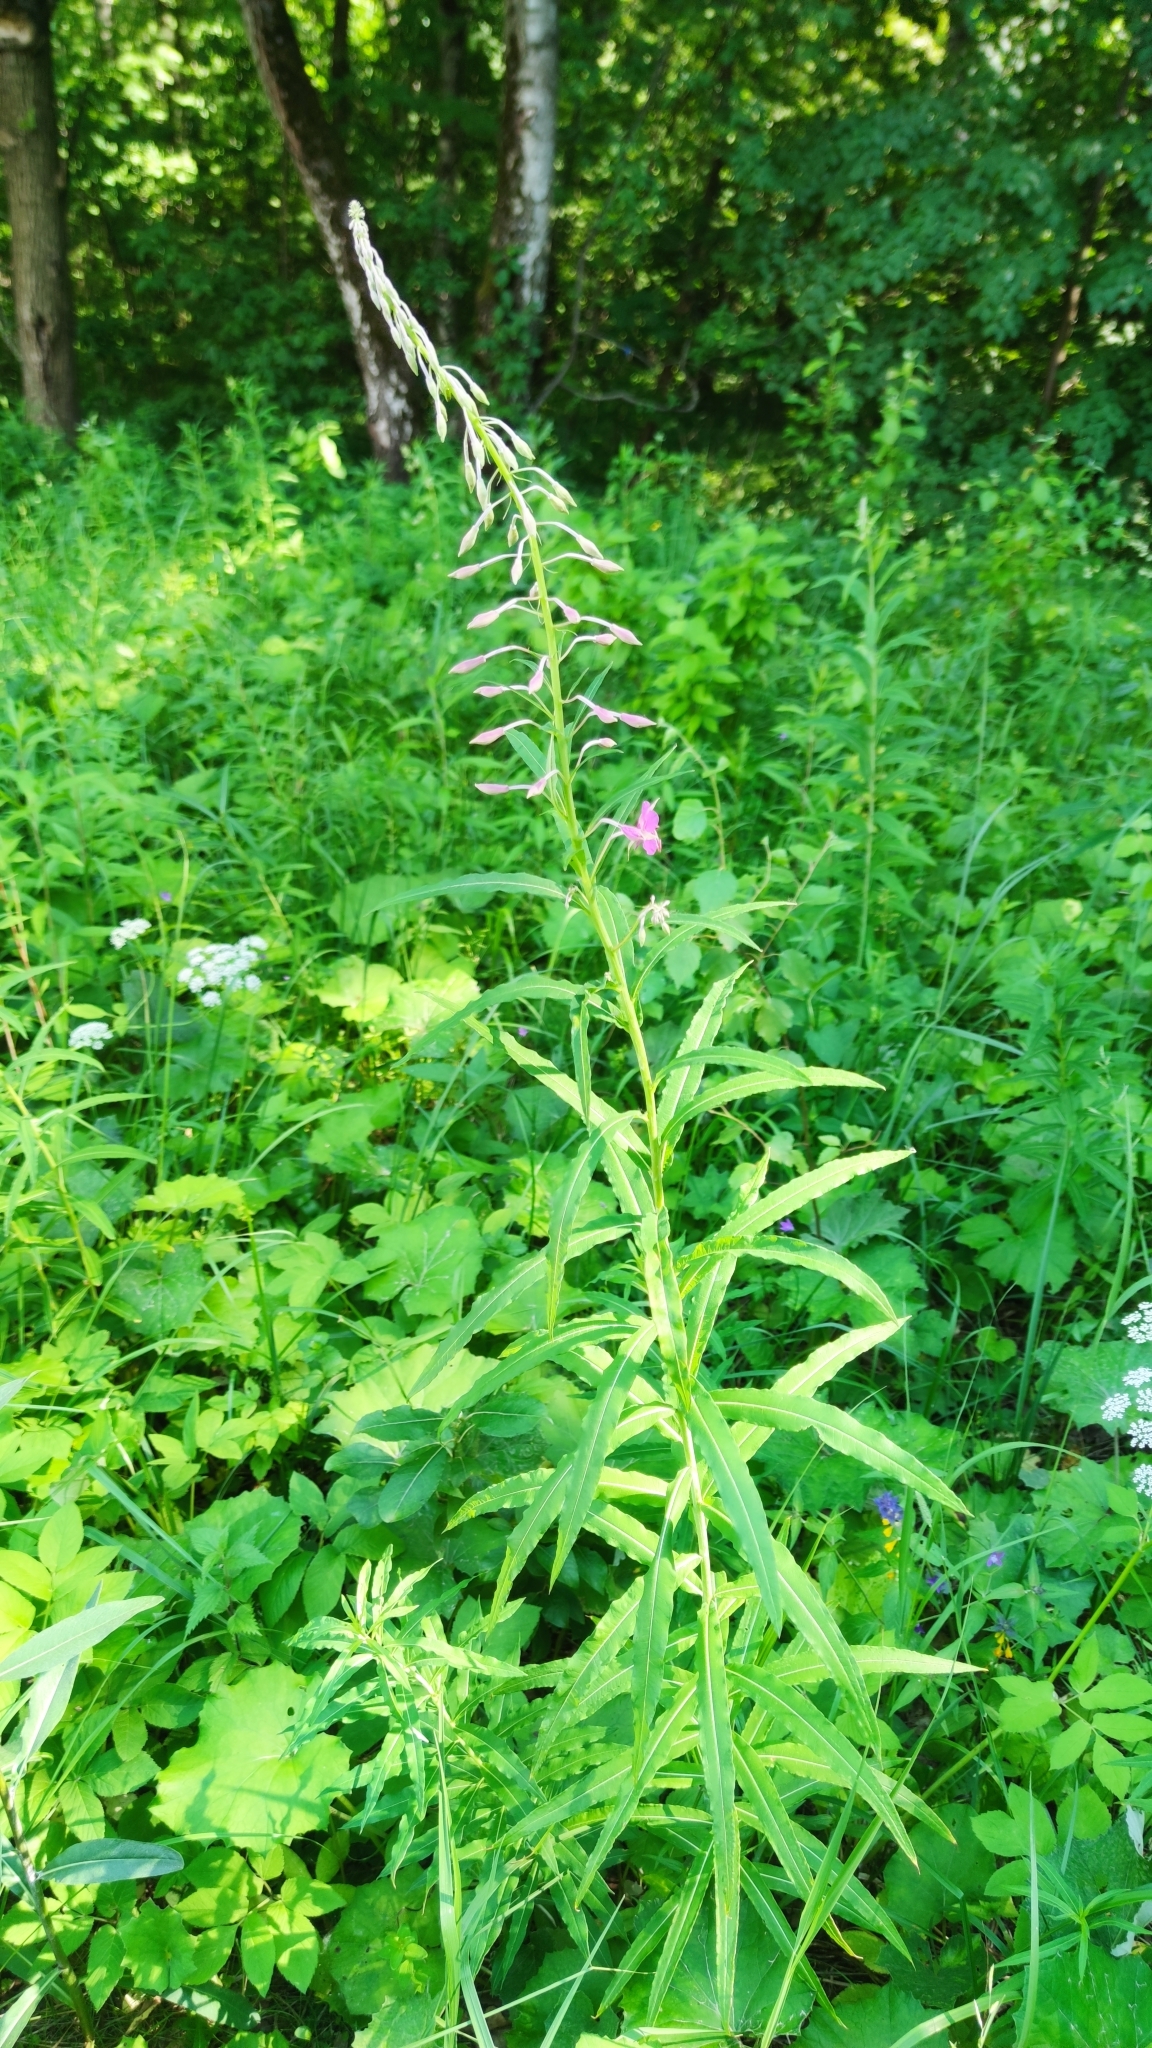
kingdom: Plantae
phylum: Tracheophyta
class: Magnoliopsida
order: Myrtales
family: Onagraceae
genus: Chamaenerion
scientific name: Chamaenerion angustifolium
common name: Fireweed
